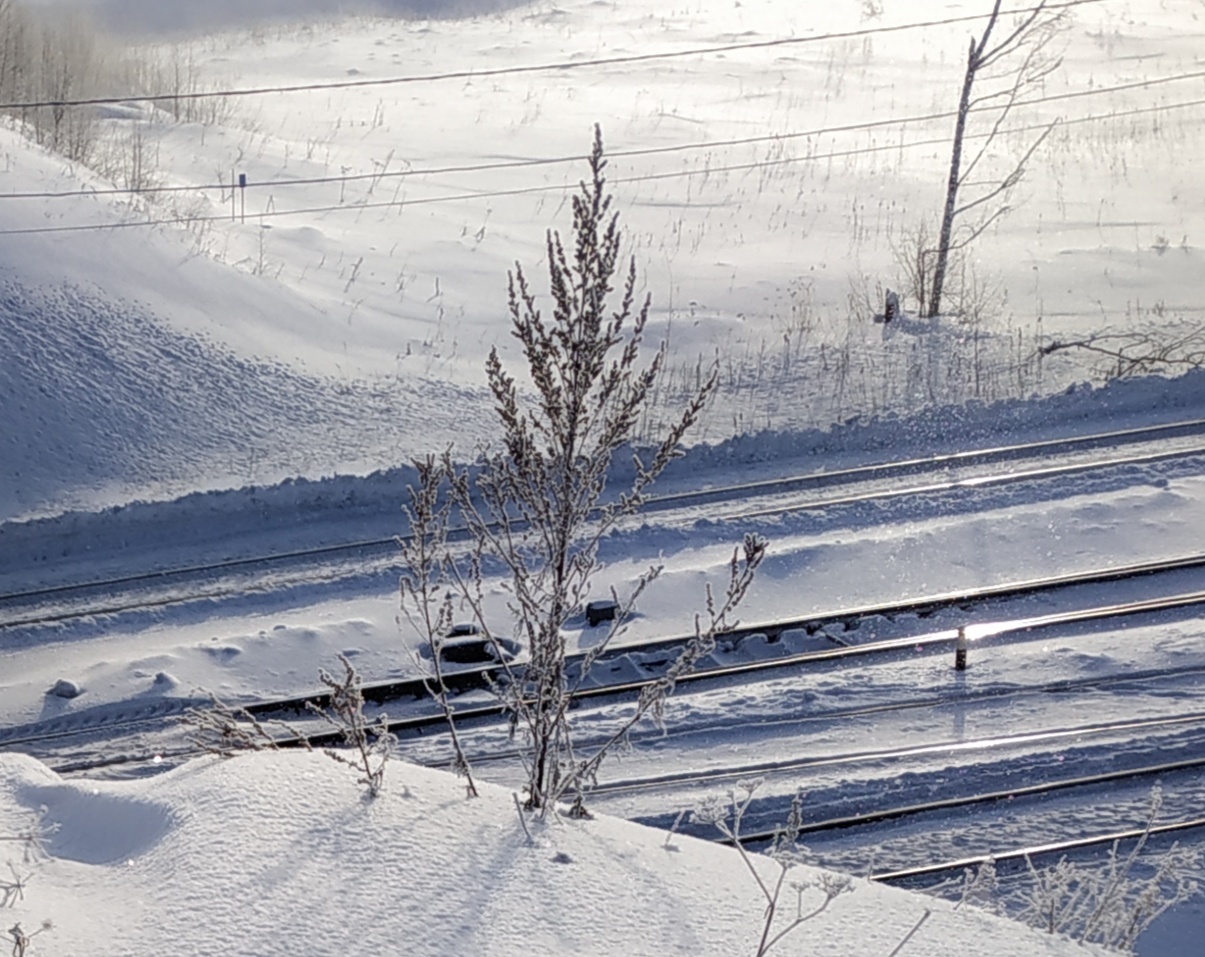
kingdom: Plantae
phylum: Tracheophyta
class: Magnoliopsida
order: Asterales
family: Asteraceae
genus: Artemisia
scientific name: Artemisia vulgaris
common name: Mugwort
